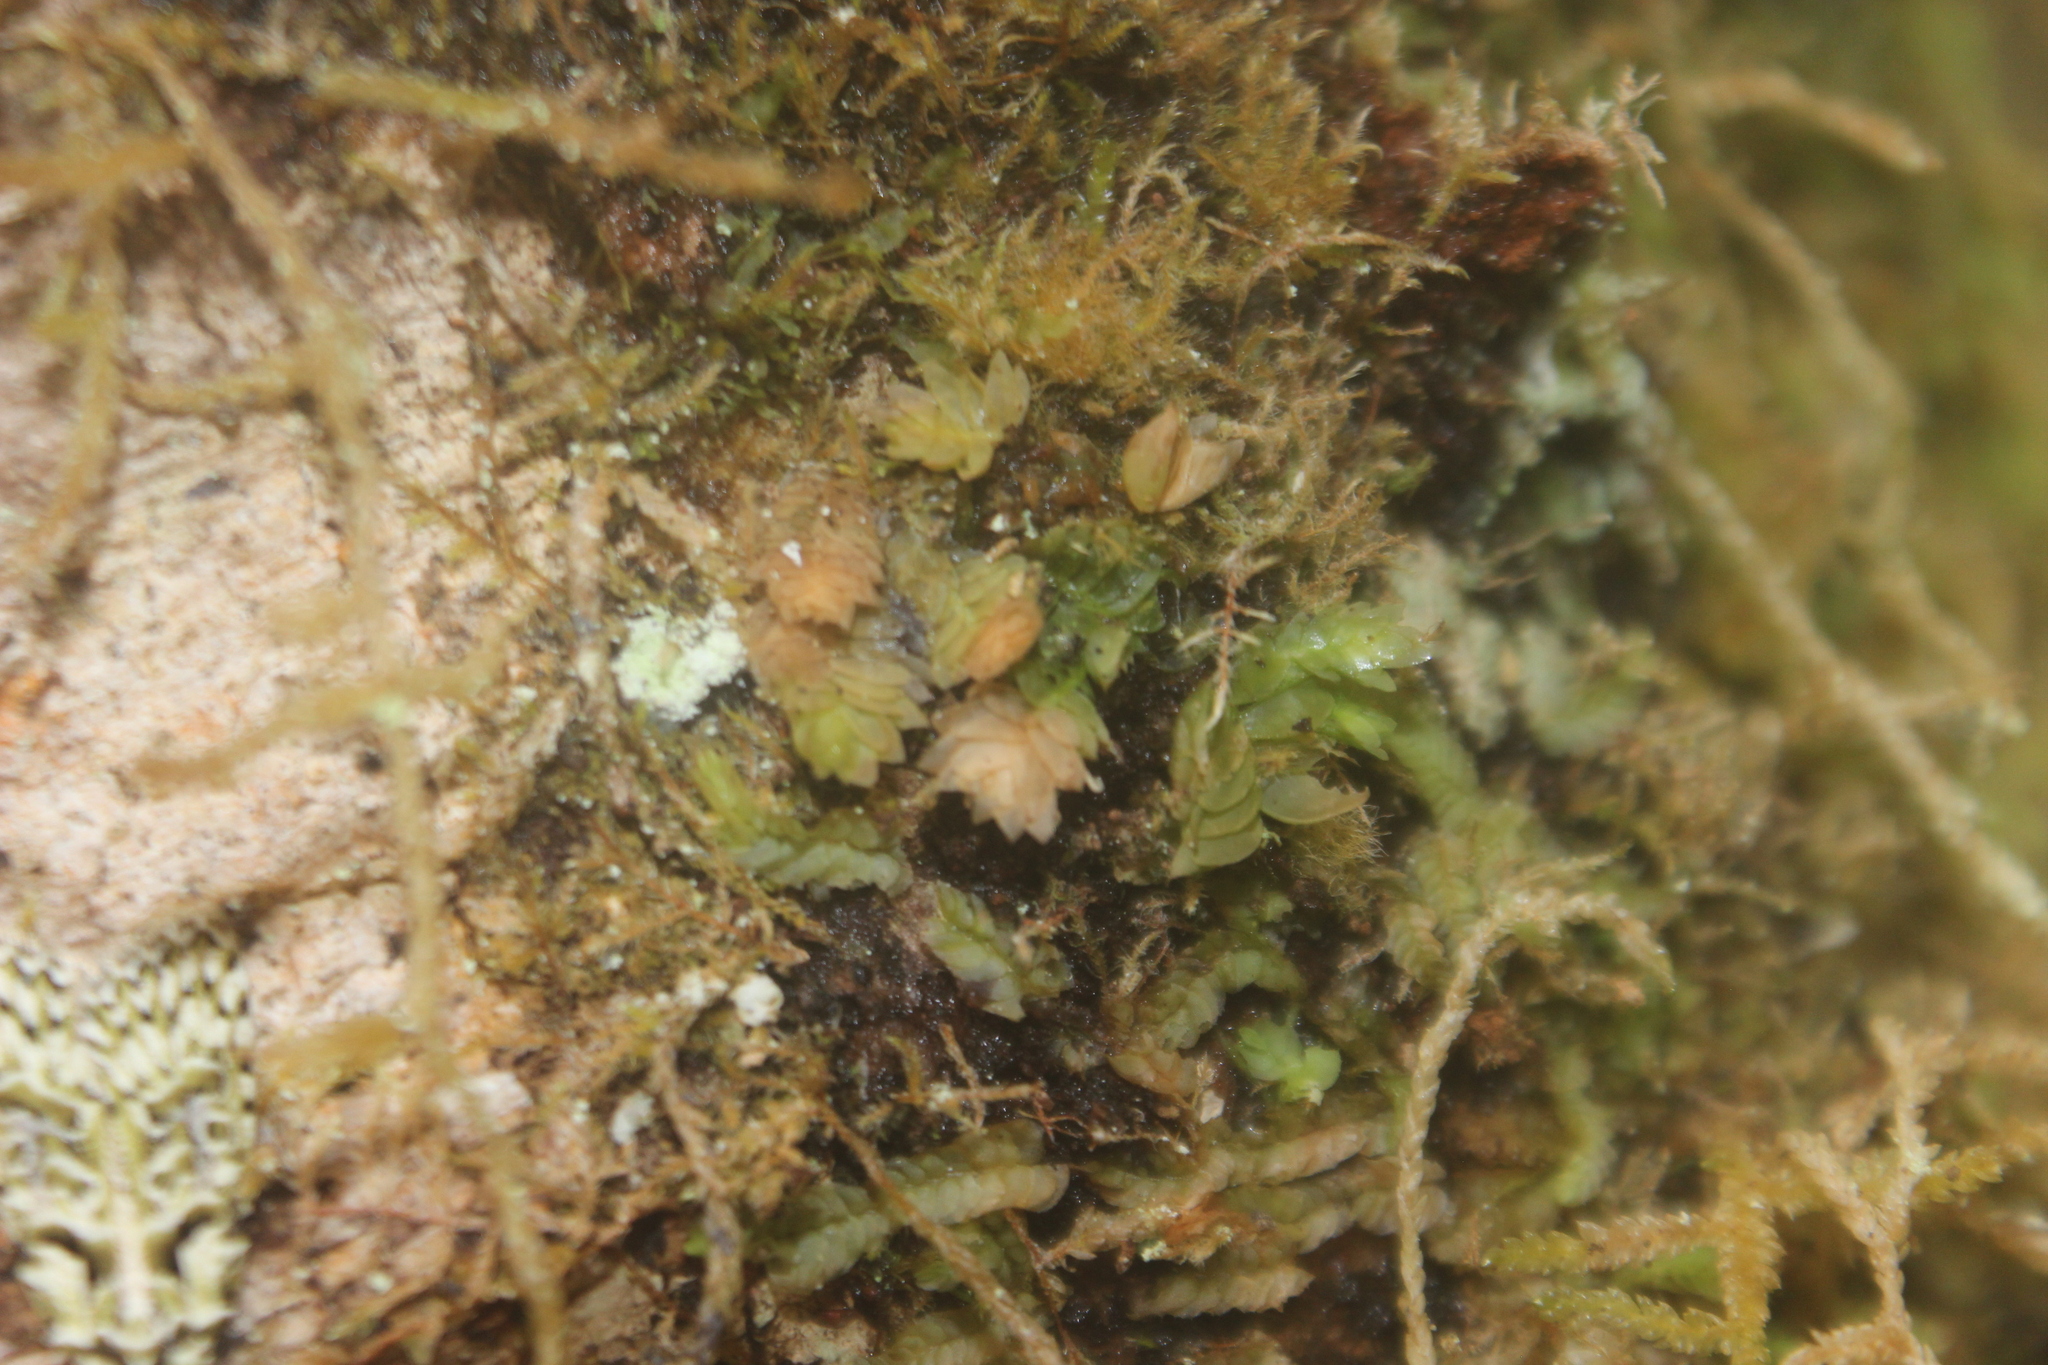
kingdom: Plantae
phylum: Marchantiophyta
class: Jungermanniopsida
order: Jungermanniales
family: Schistochilaceae
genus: Schistochila
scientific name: Schistochila tuloides
